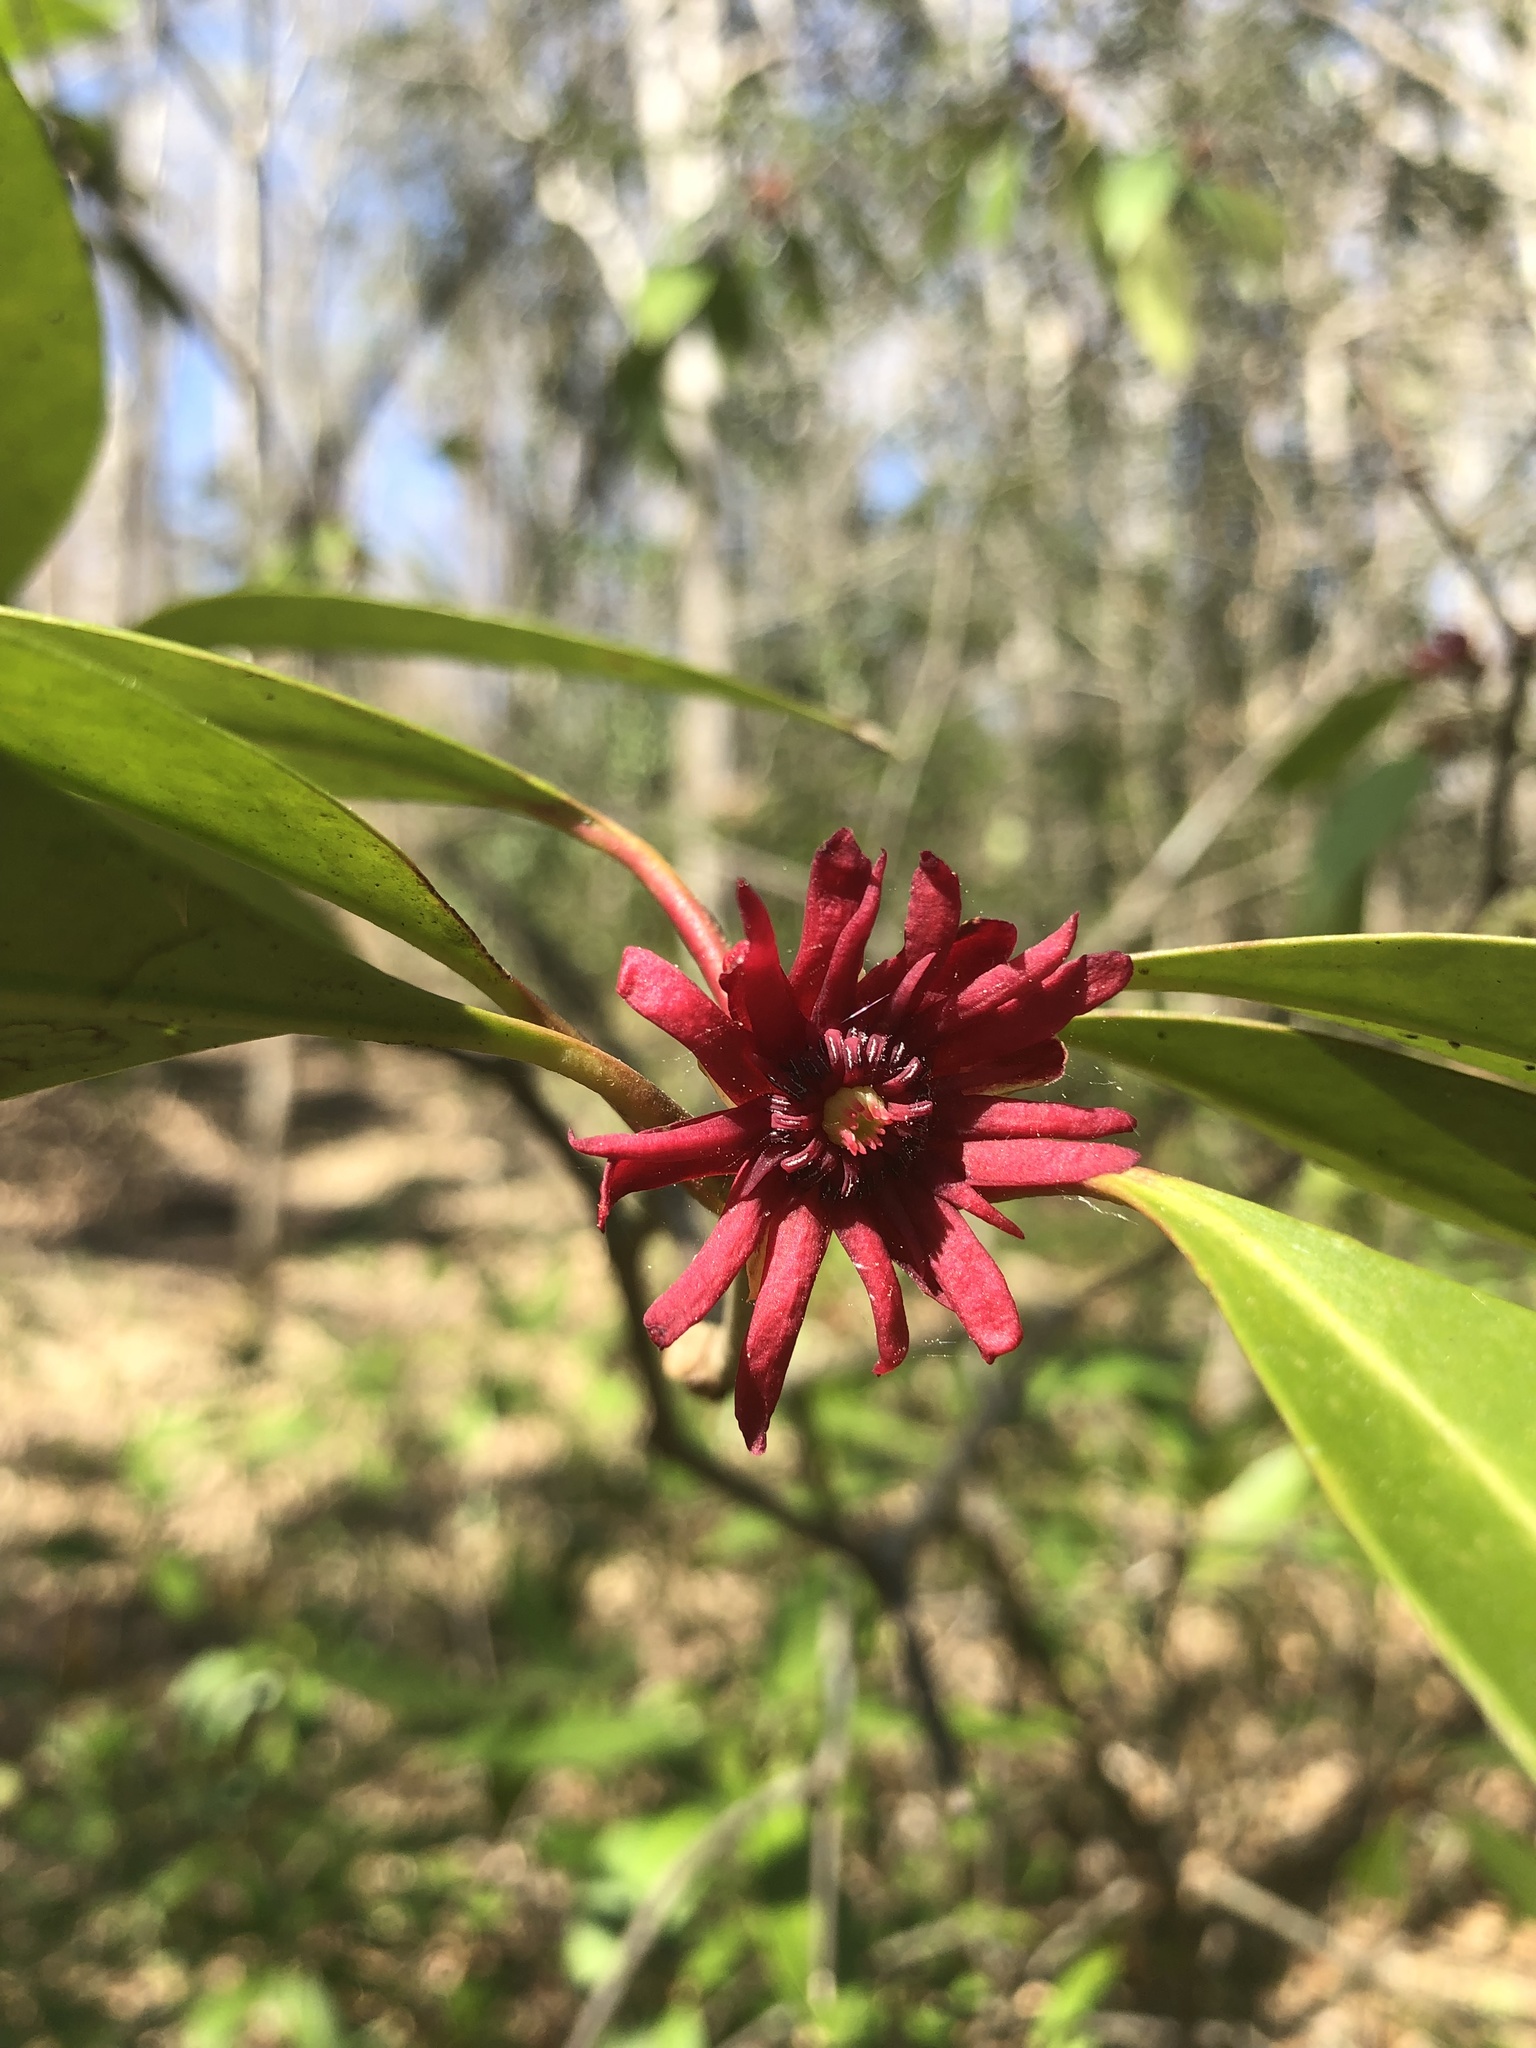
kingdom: Plantae
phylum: Tracheophyta
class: Magnoliopsida
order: Austrobaileyales
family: Schisandraceae
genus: Illicium
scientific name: Illicium floridanum
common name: Florida anisetree
